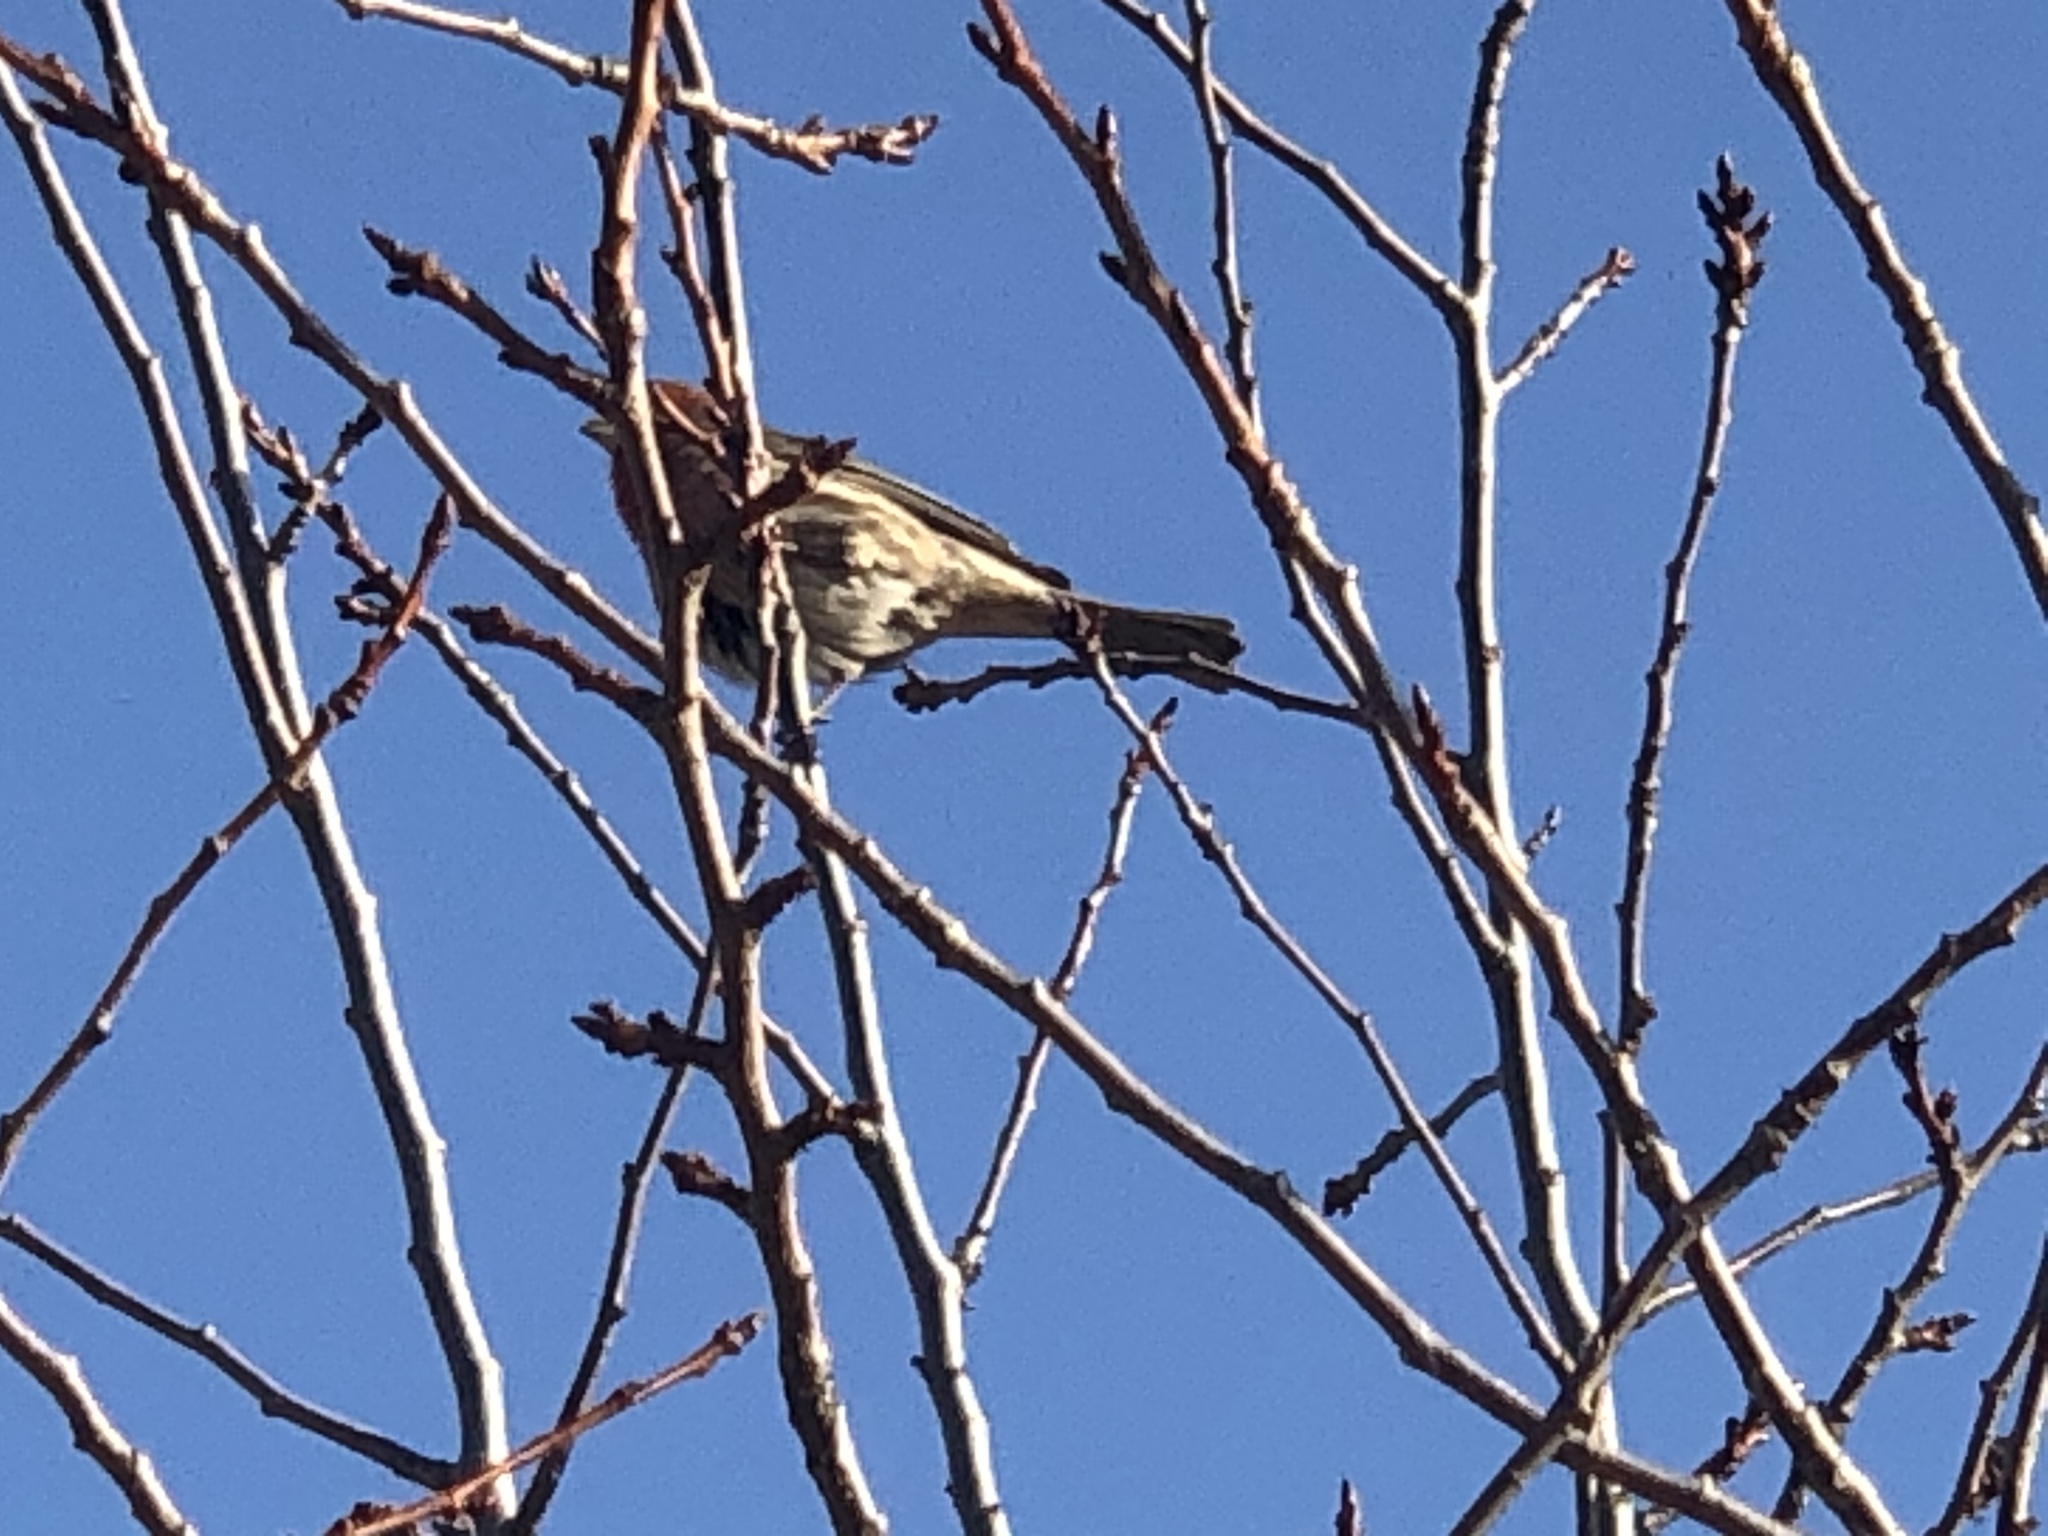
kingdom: Animalia
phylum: Chordata
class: Aves
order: Passeriformes
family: Fringillidae
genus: Haemorhous
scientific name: Haemorhous mexicanus
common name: House finch
